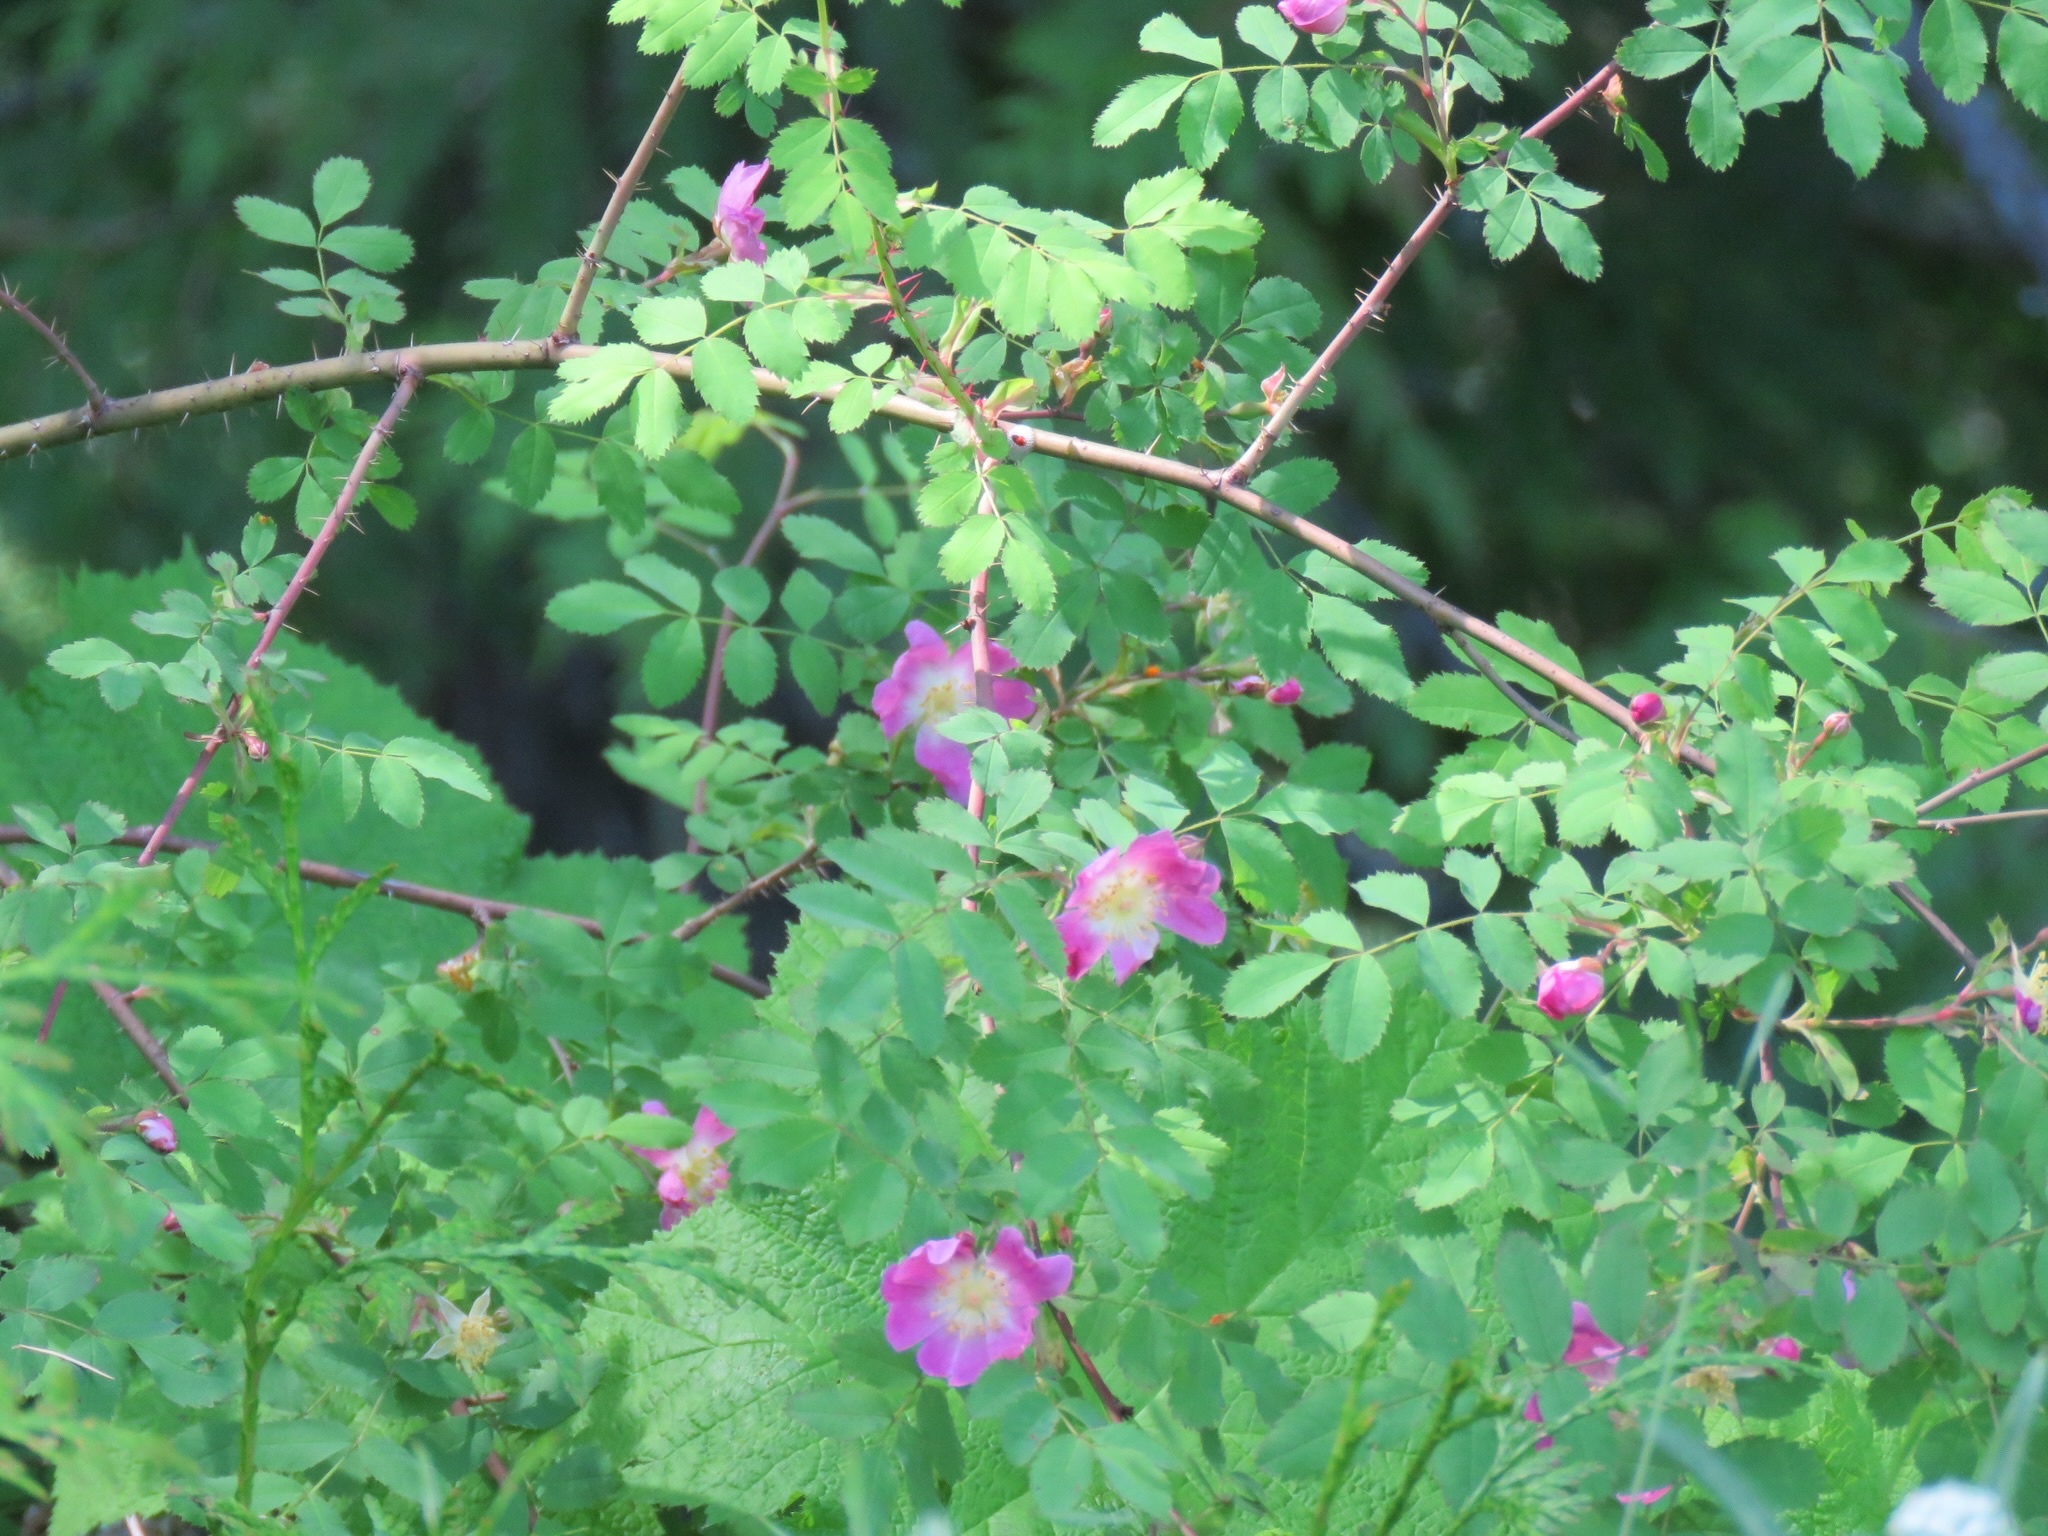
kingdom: Plantae
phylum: Tracheophyta
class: Magnoliopsida
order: Rosales
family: Rosaceae
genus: Rosa
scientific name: Rosa woodsii
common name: Woods's rose
